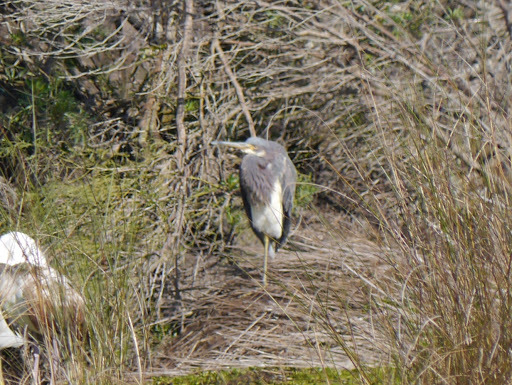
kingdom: Animalia
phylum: Chordata
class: Aves
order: Pelecaniformes
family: Ardeidae
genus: Egretta
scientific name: Egretta tricolor
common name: Tricolored heron
